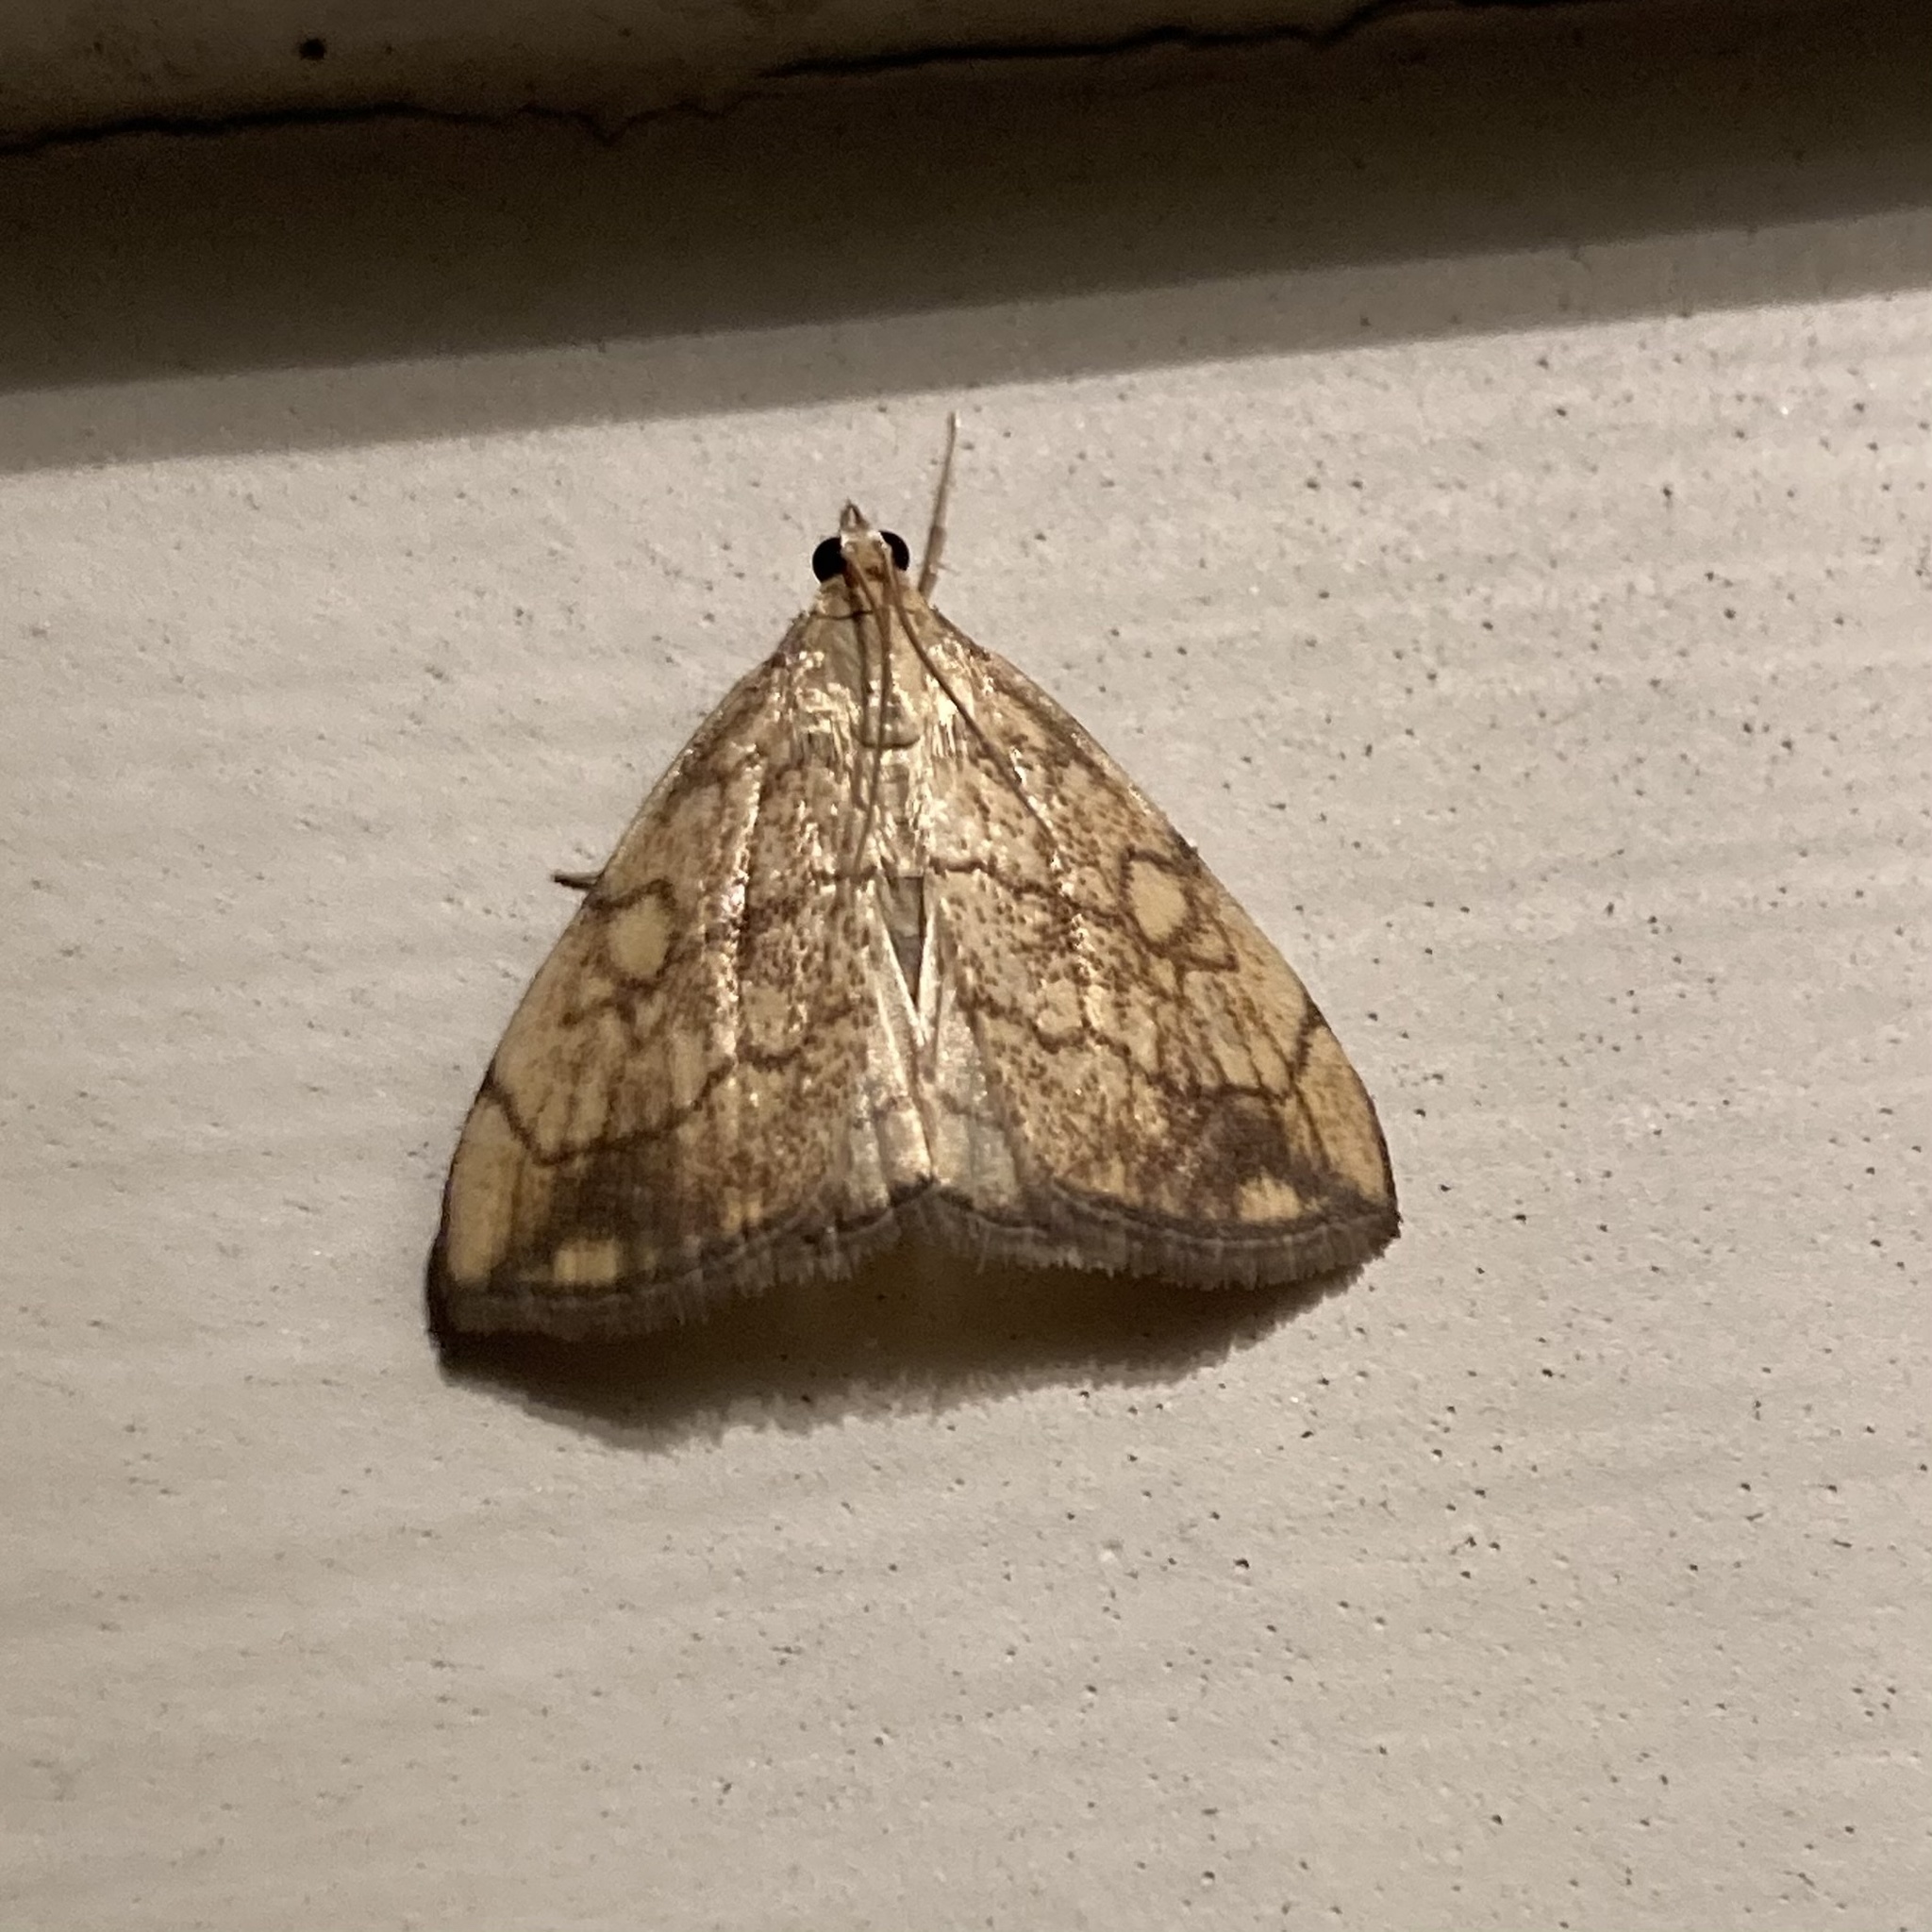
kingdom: Animalia
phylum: Arthropoda
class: Insecta
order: Lepidoptera
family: Crambidae
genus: Evergestis
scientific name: Evergestis pallidata
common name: Chequered pearl
